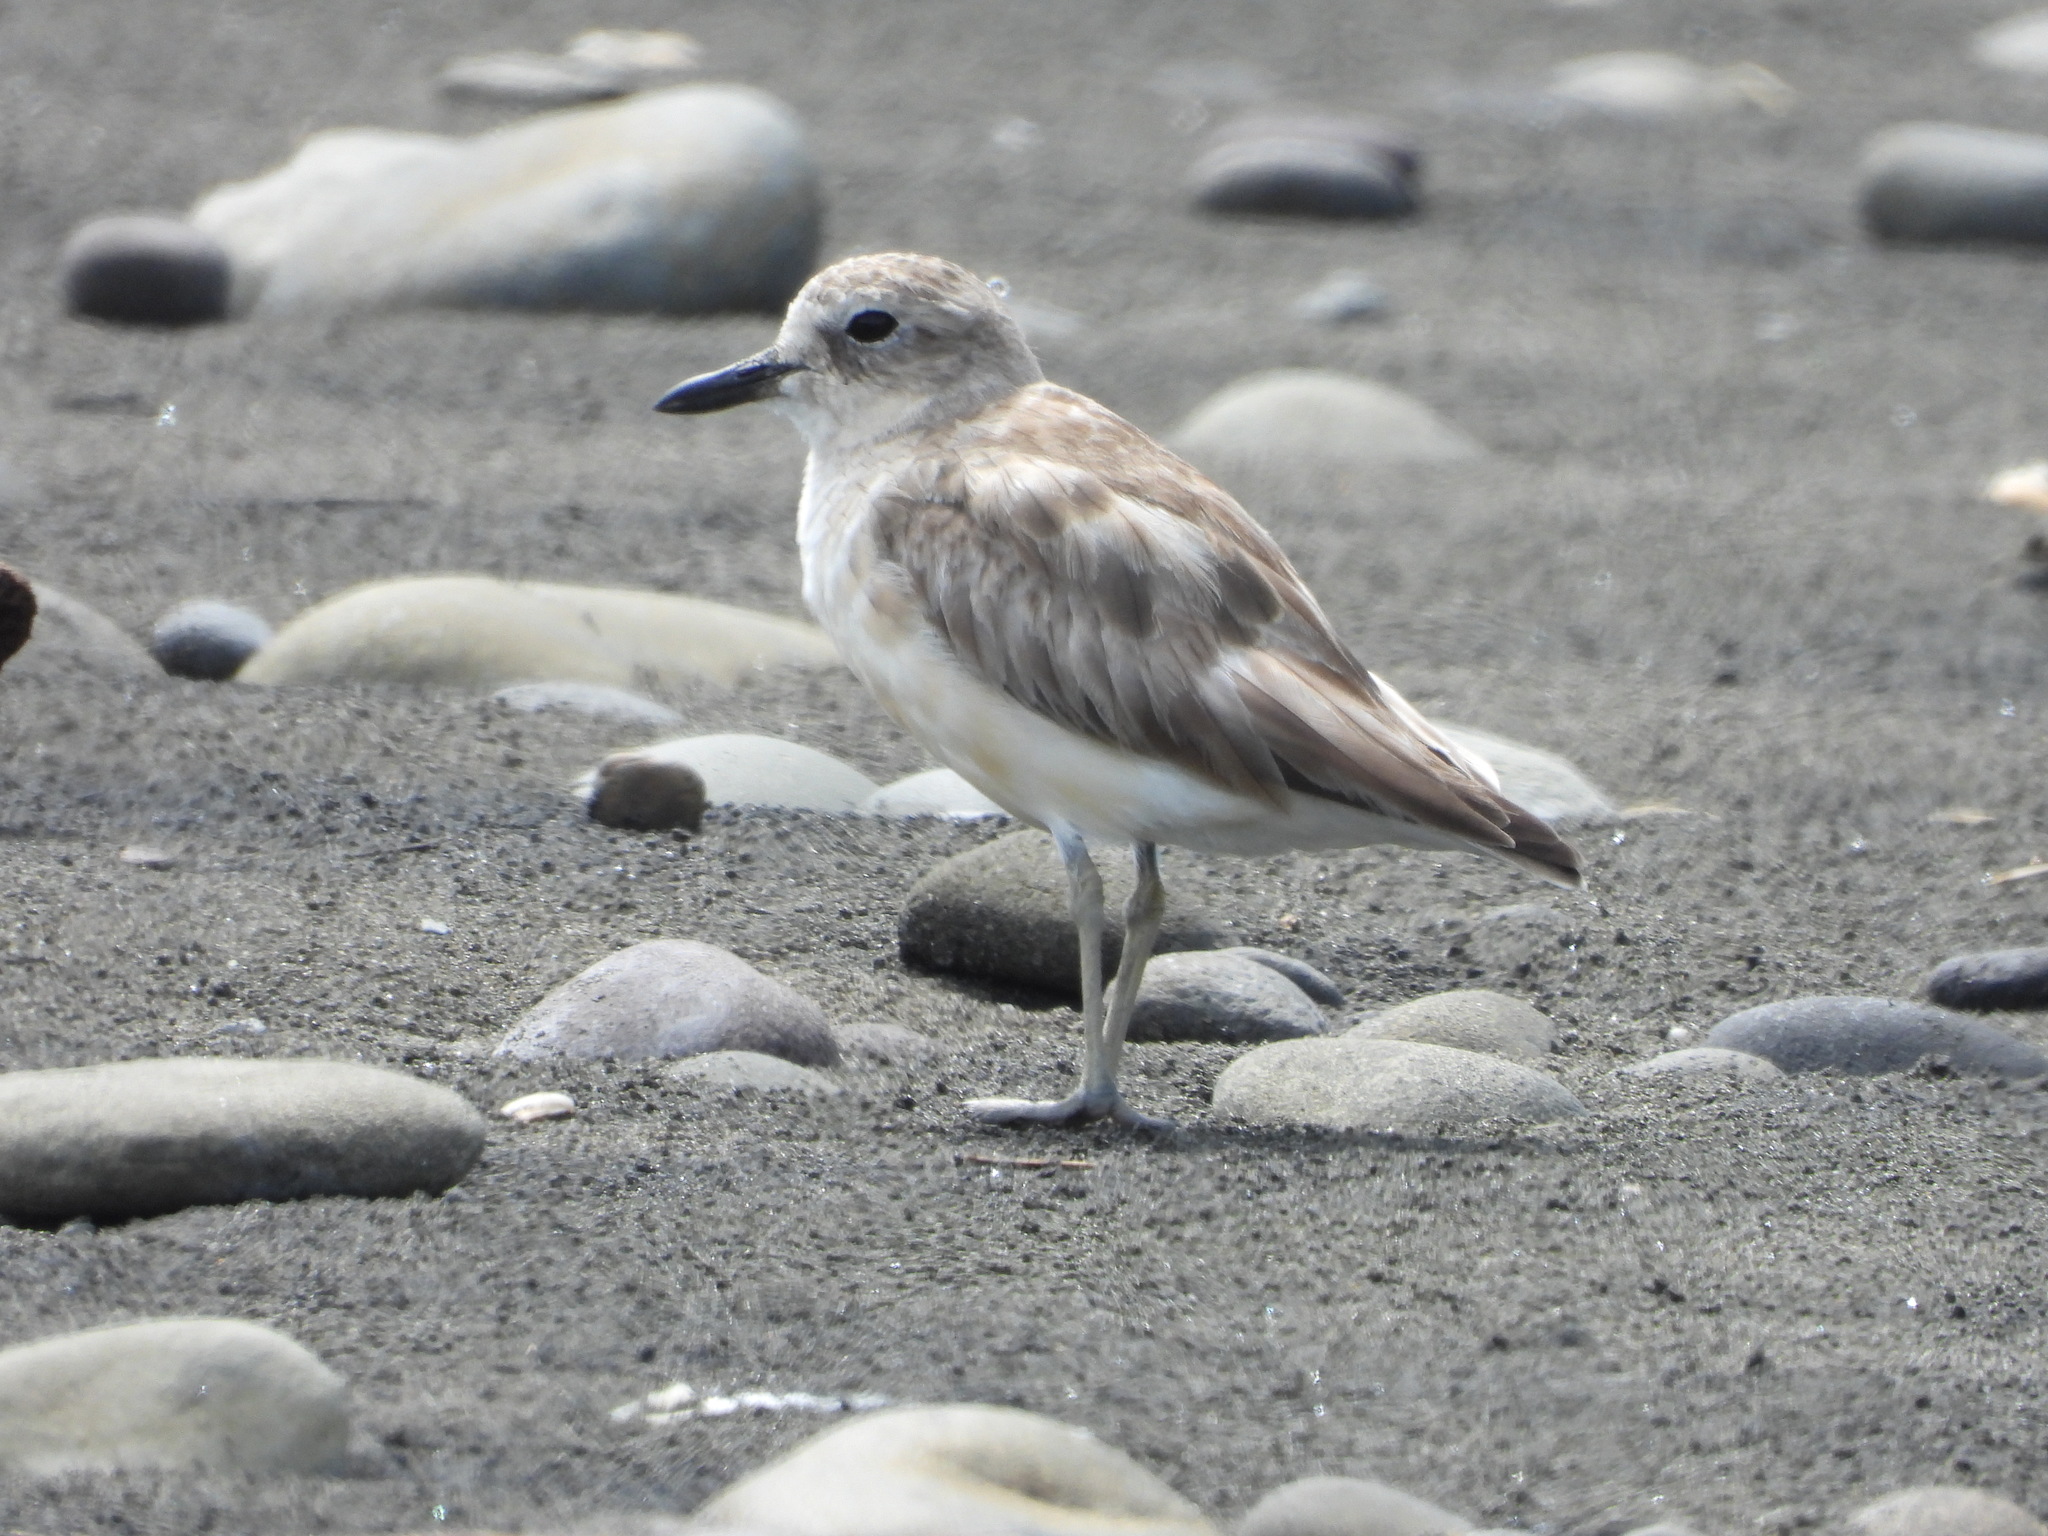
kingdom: Animalia
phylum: Chordata
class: Aves
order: Charadriiformes
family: Charadriidae
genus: Anarhynchus
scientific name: Anarhynchus
